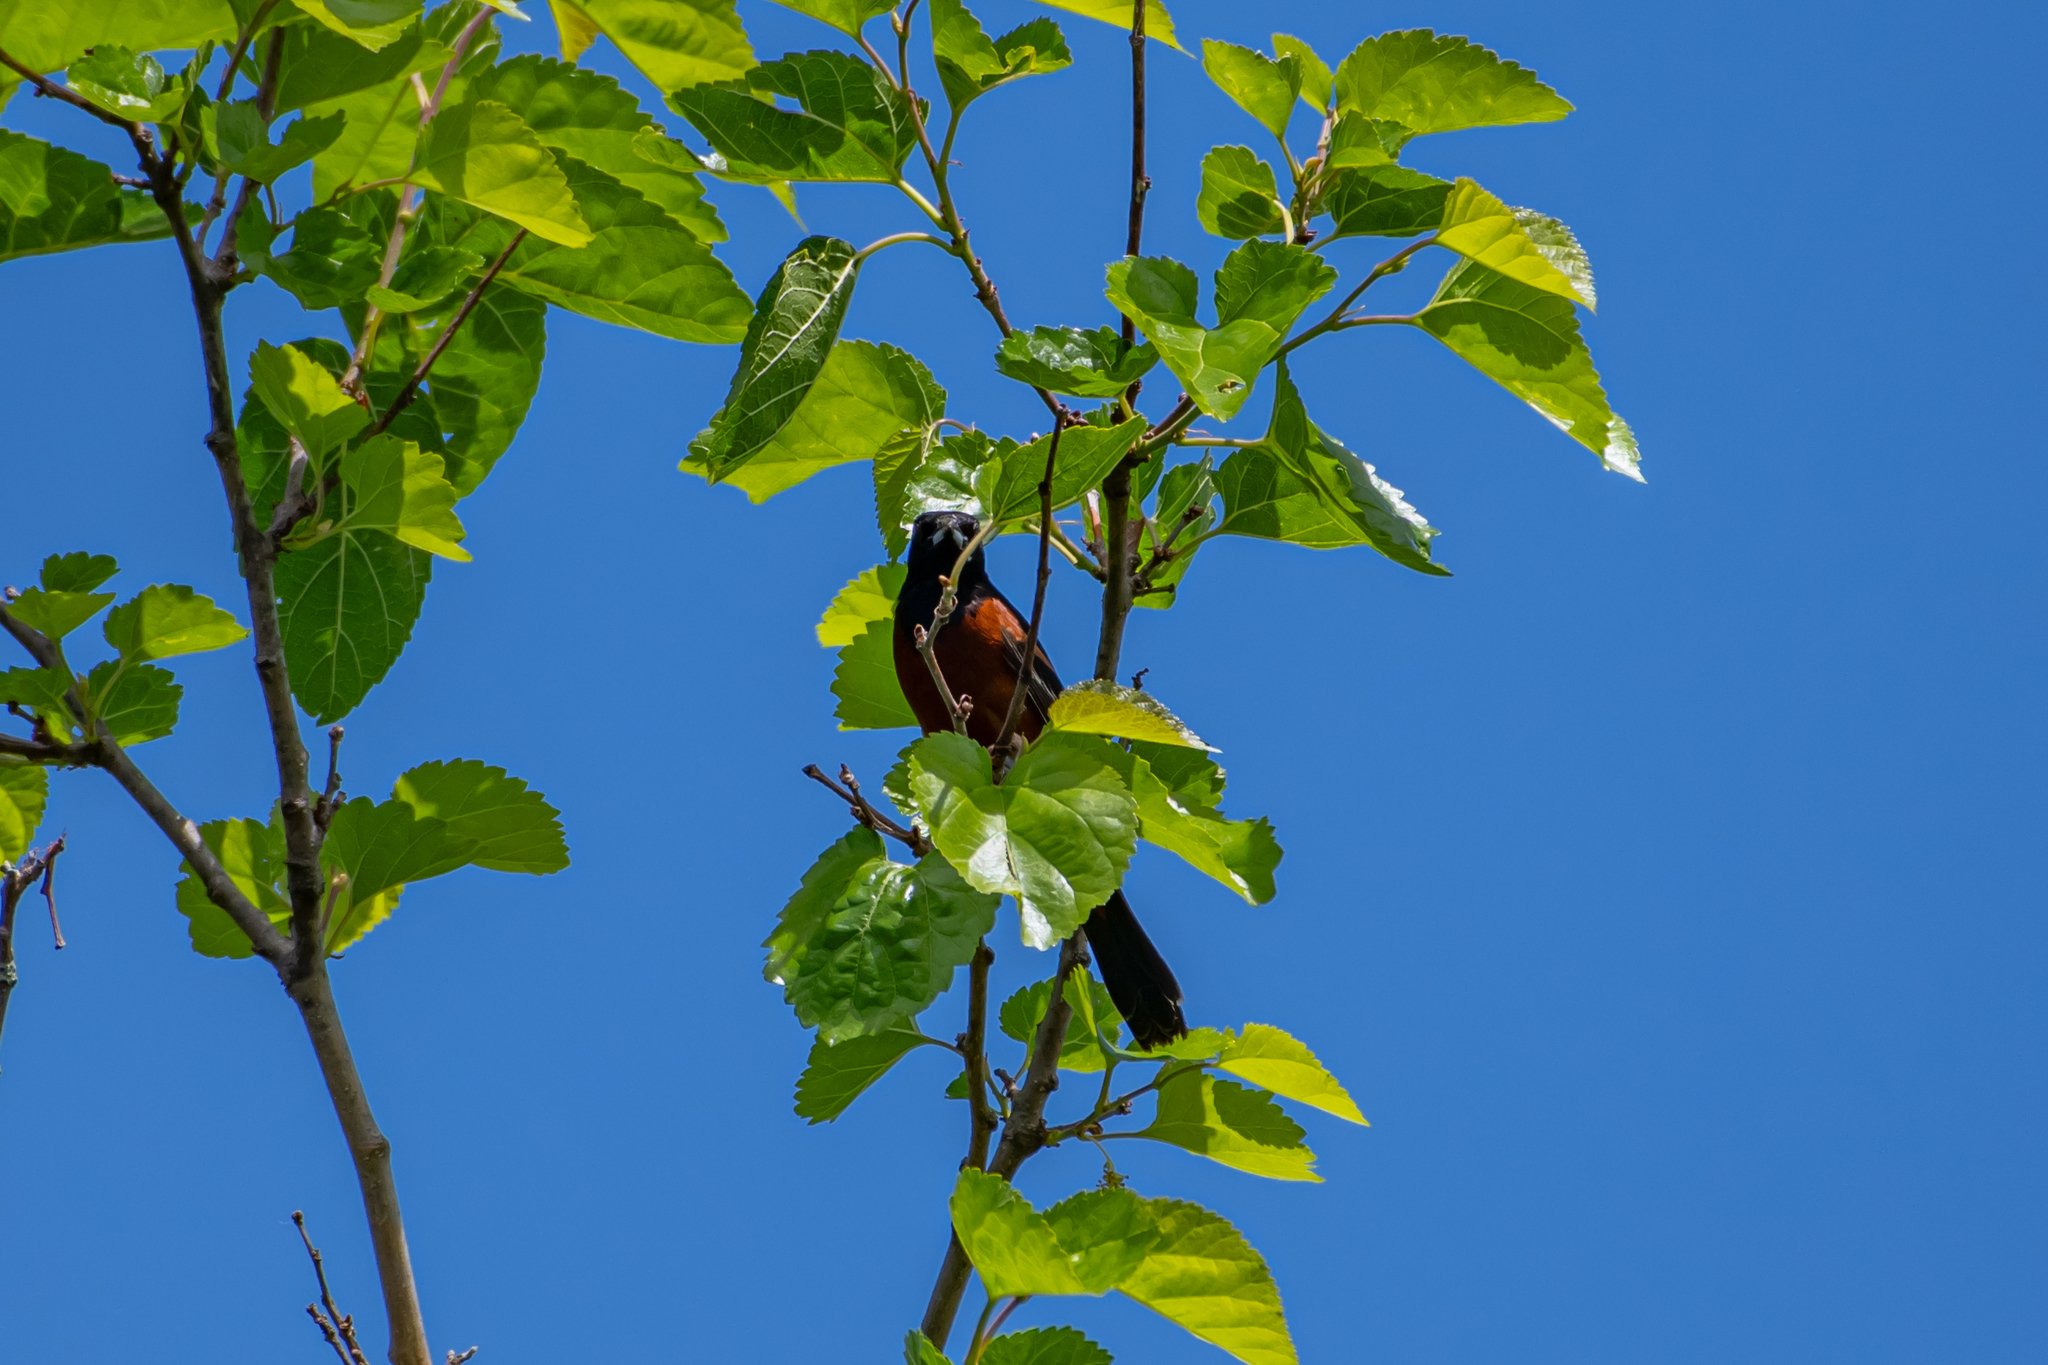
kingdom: Animalia
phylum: Chordata
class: Aves
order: Passeriformes
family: Icteridae
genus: Icterus
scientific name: Icterus spurius
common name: Orchard oriole
